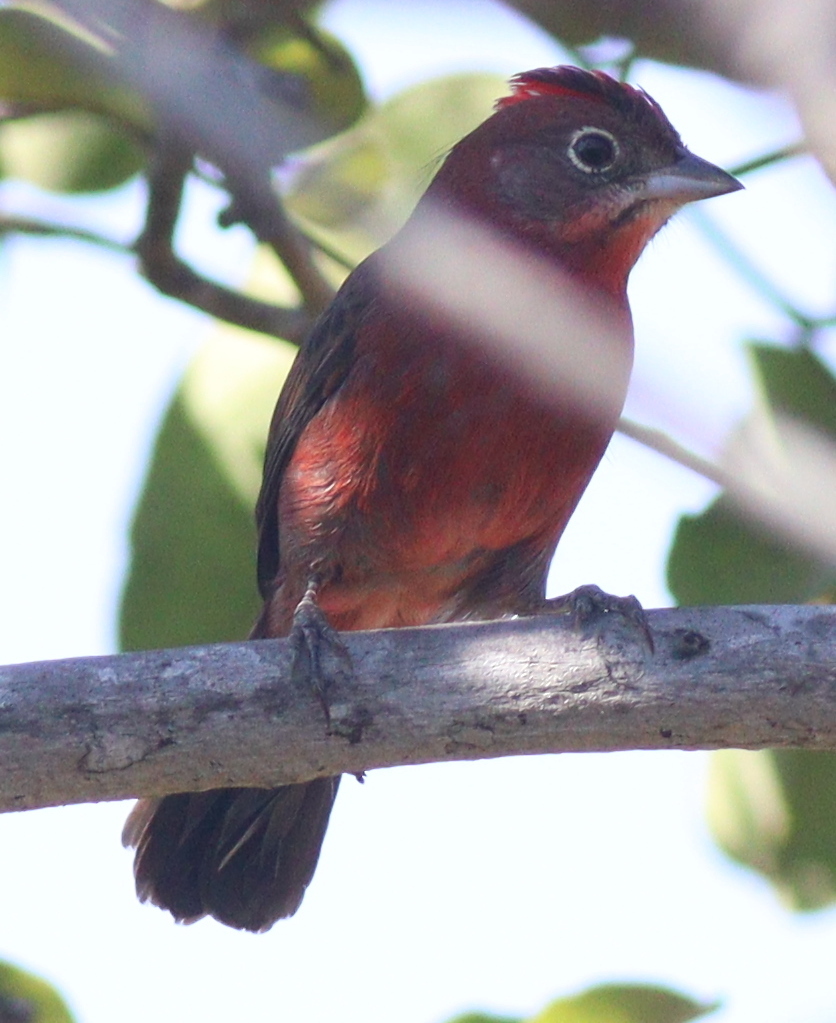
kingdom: Animalia
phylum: Chordata
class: Aves
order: Passeriformes
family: Thraupidae
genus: Coryphospingus
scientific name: Coryphospingus cucullatus
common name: Red pileated finch
